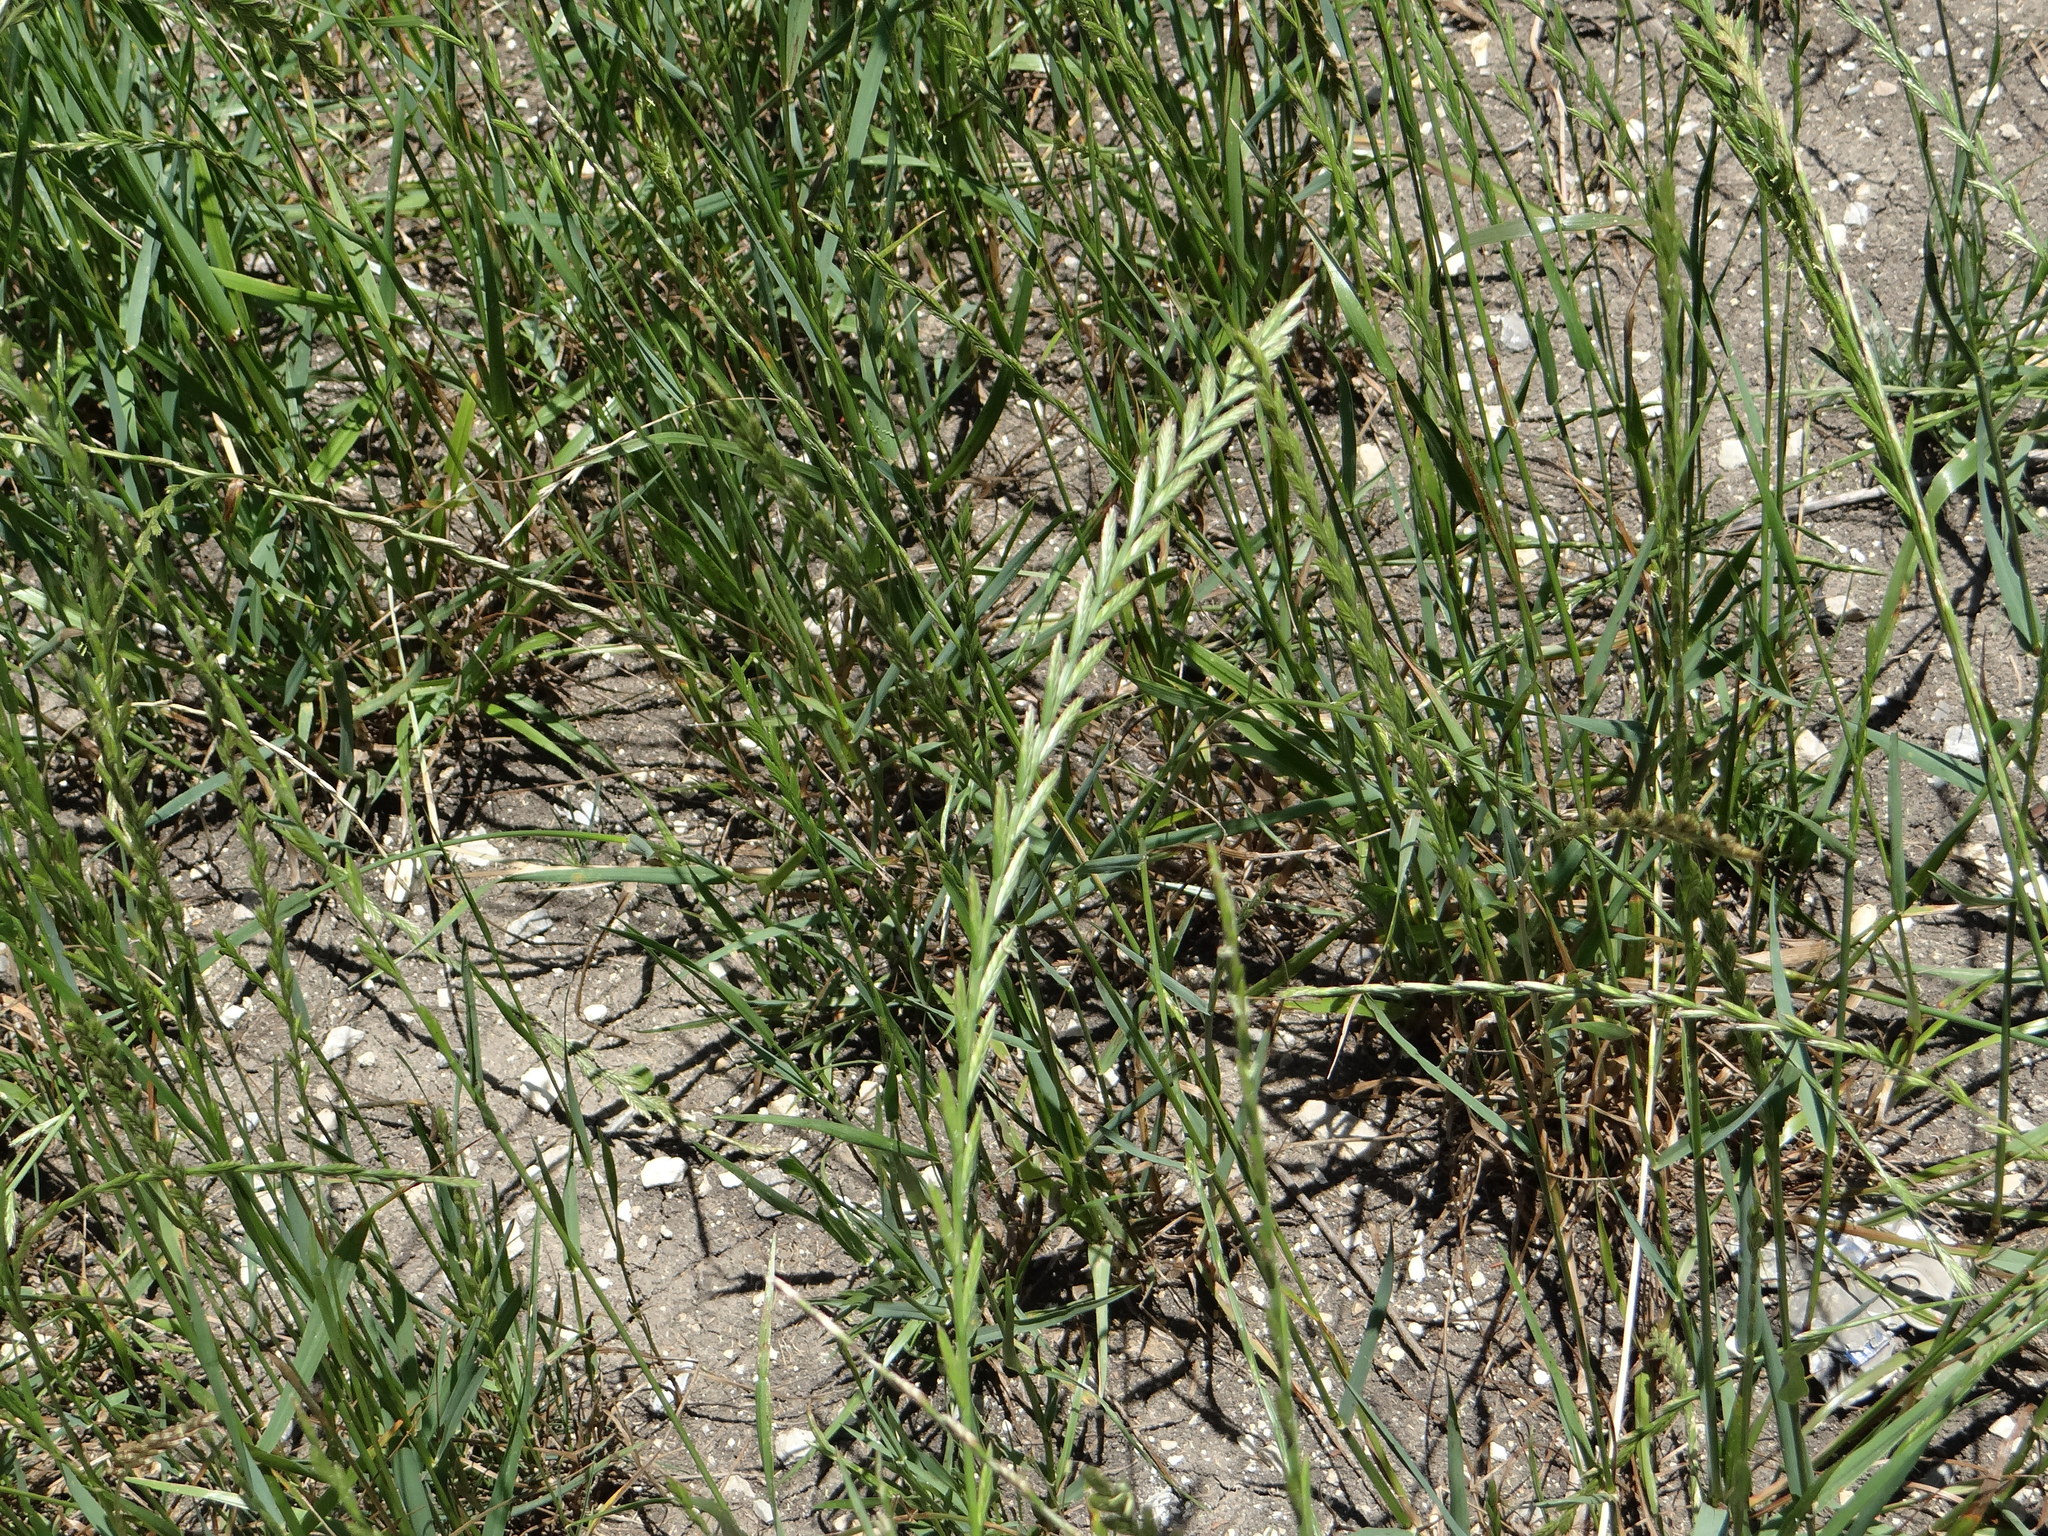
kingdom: Plantae
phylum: Tracheophyta
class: Liliopsida
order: Poales
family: Poaceae
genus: Lolium
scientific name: Lolium perenne
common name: Perennial ryegrass
